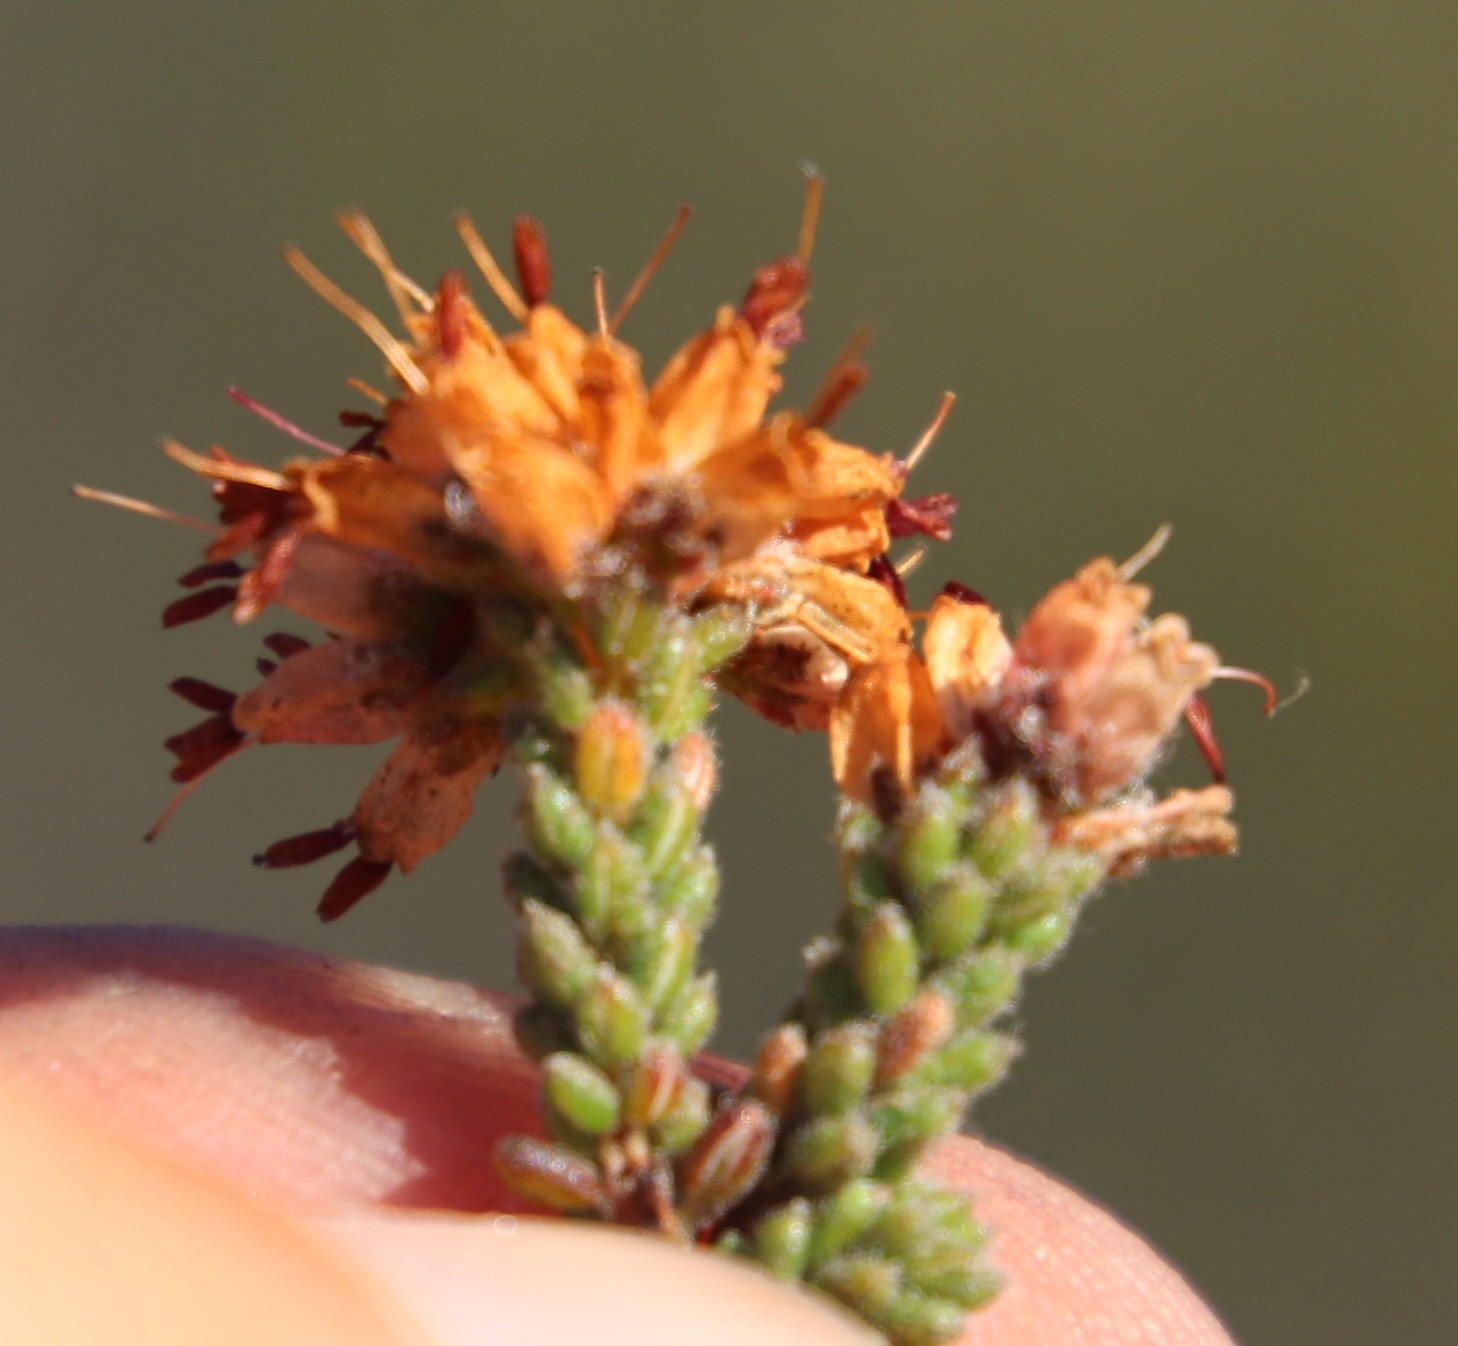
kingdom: Plantae
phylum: Tracheophyta
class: Magnoliopsida
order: Ericales
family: Ericaceae
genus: Erica
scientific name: Erica ericoides
